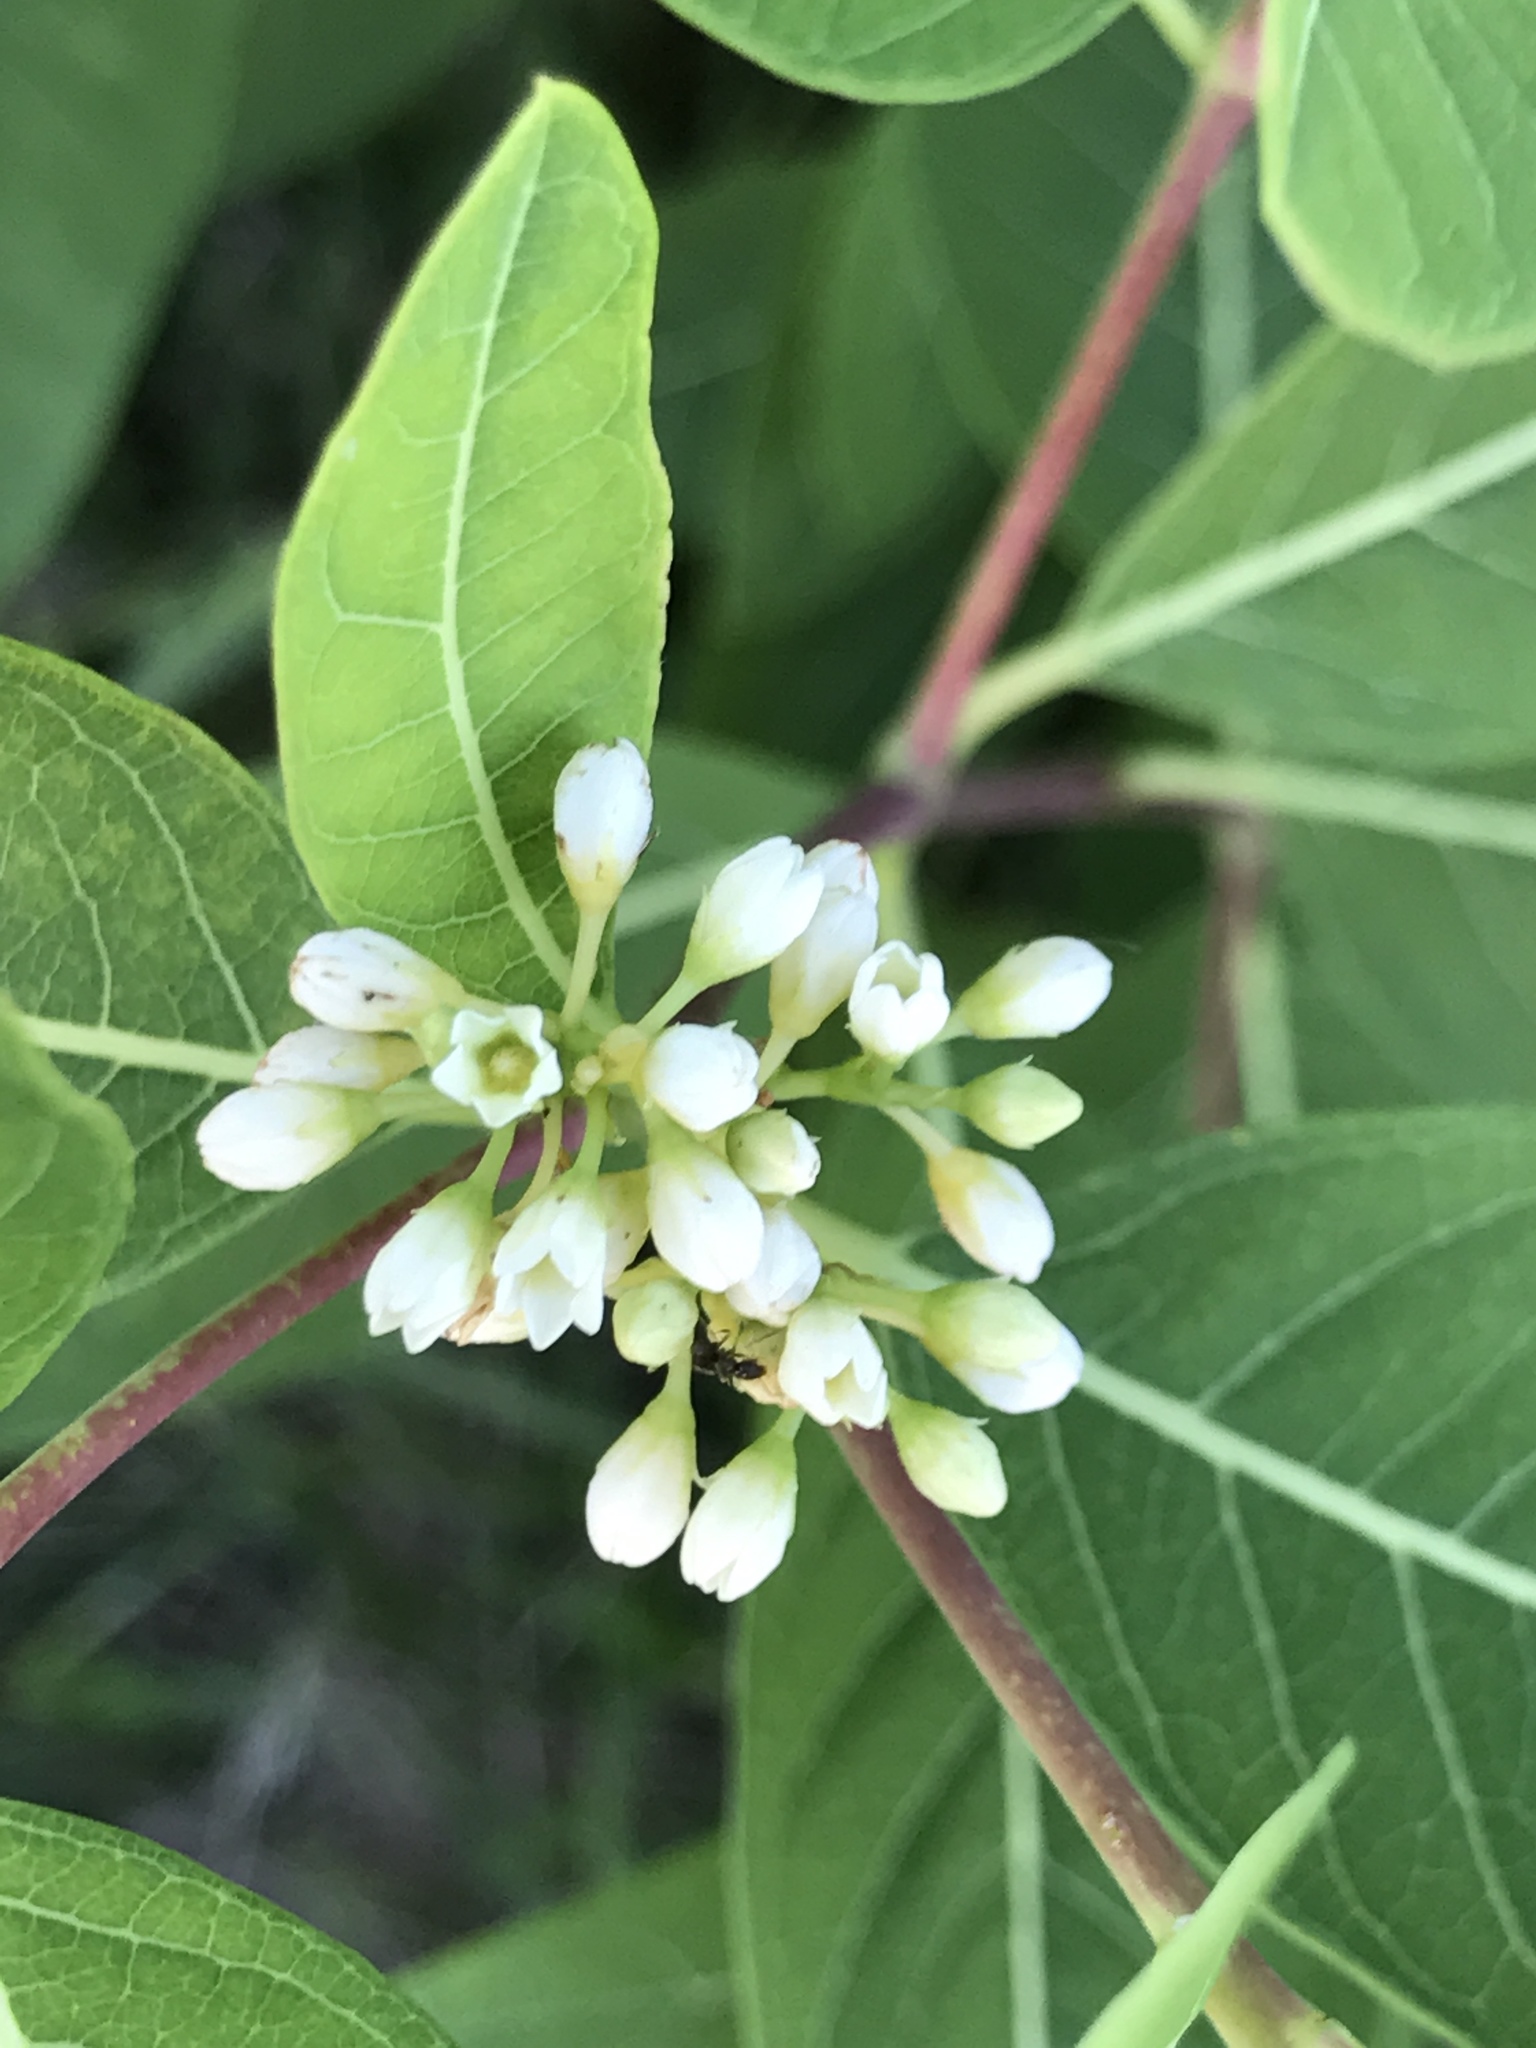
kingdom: Plantae
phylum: Tracheophyta
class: Magnoliopsida
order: Gentianales
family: Apocynaceae
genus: Apocynum
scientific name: Apocynum cannabinum
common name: Hemp dogbane
